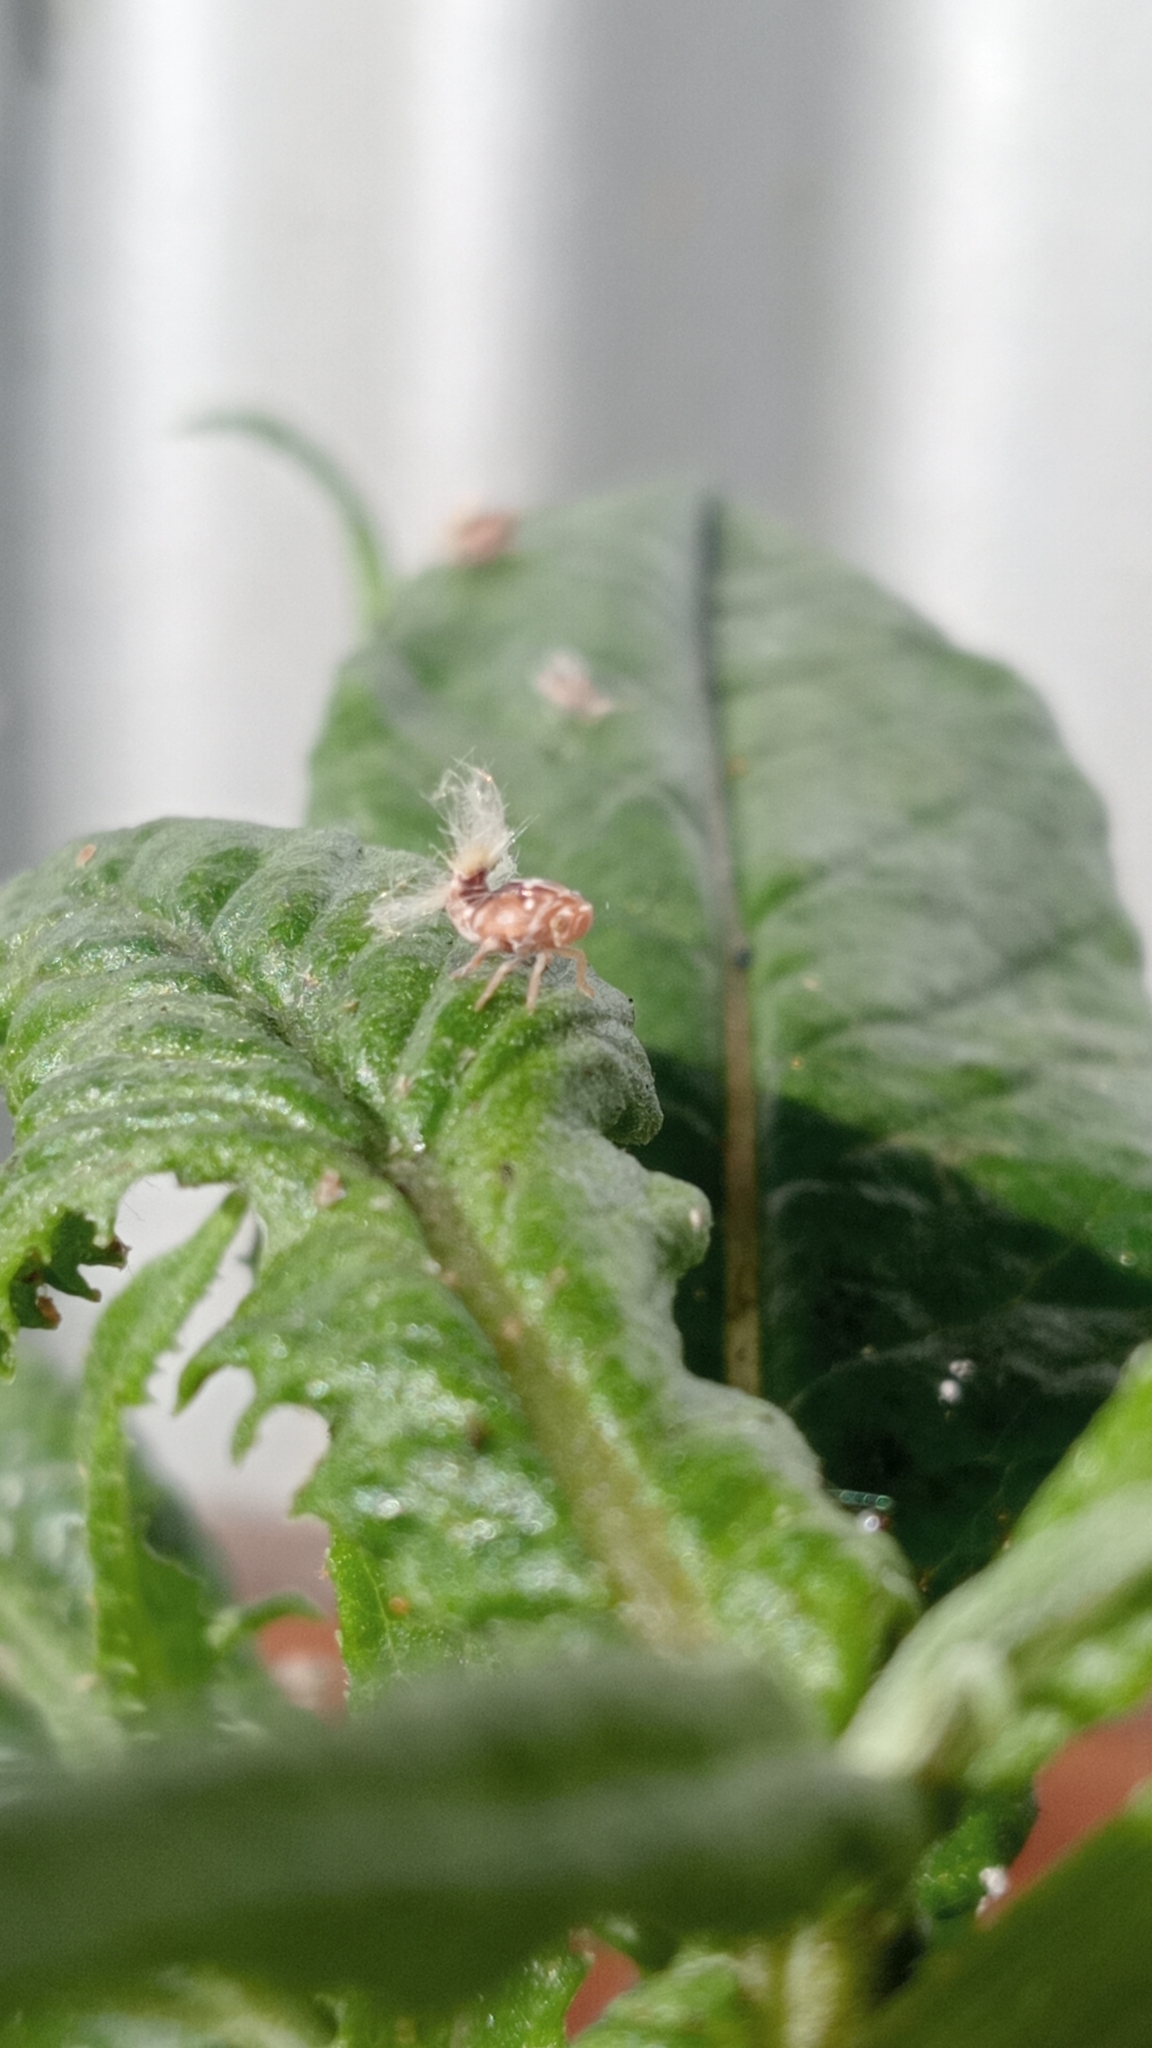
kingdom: Animalia
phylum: Arthropoda
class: Insecta
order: Hemiptera
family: Ricaniidae
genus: Scolypopa
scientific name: Scolypopa australis
